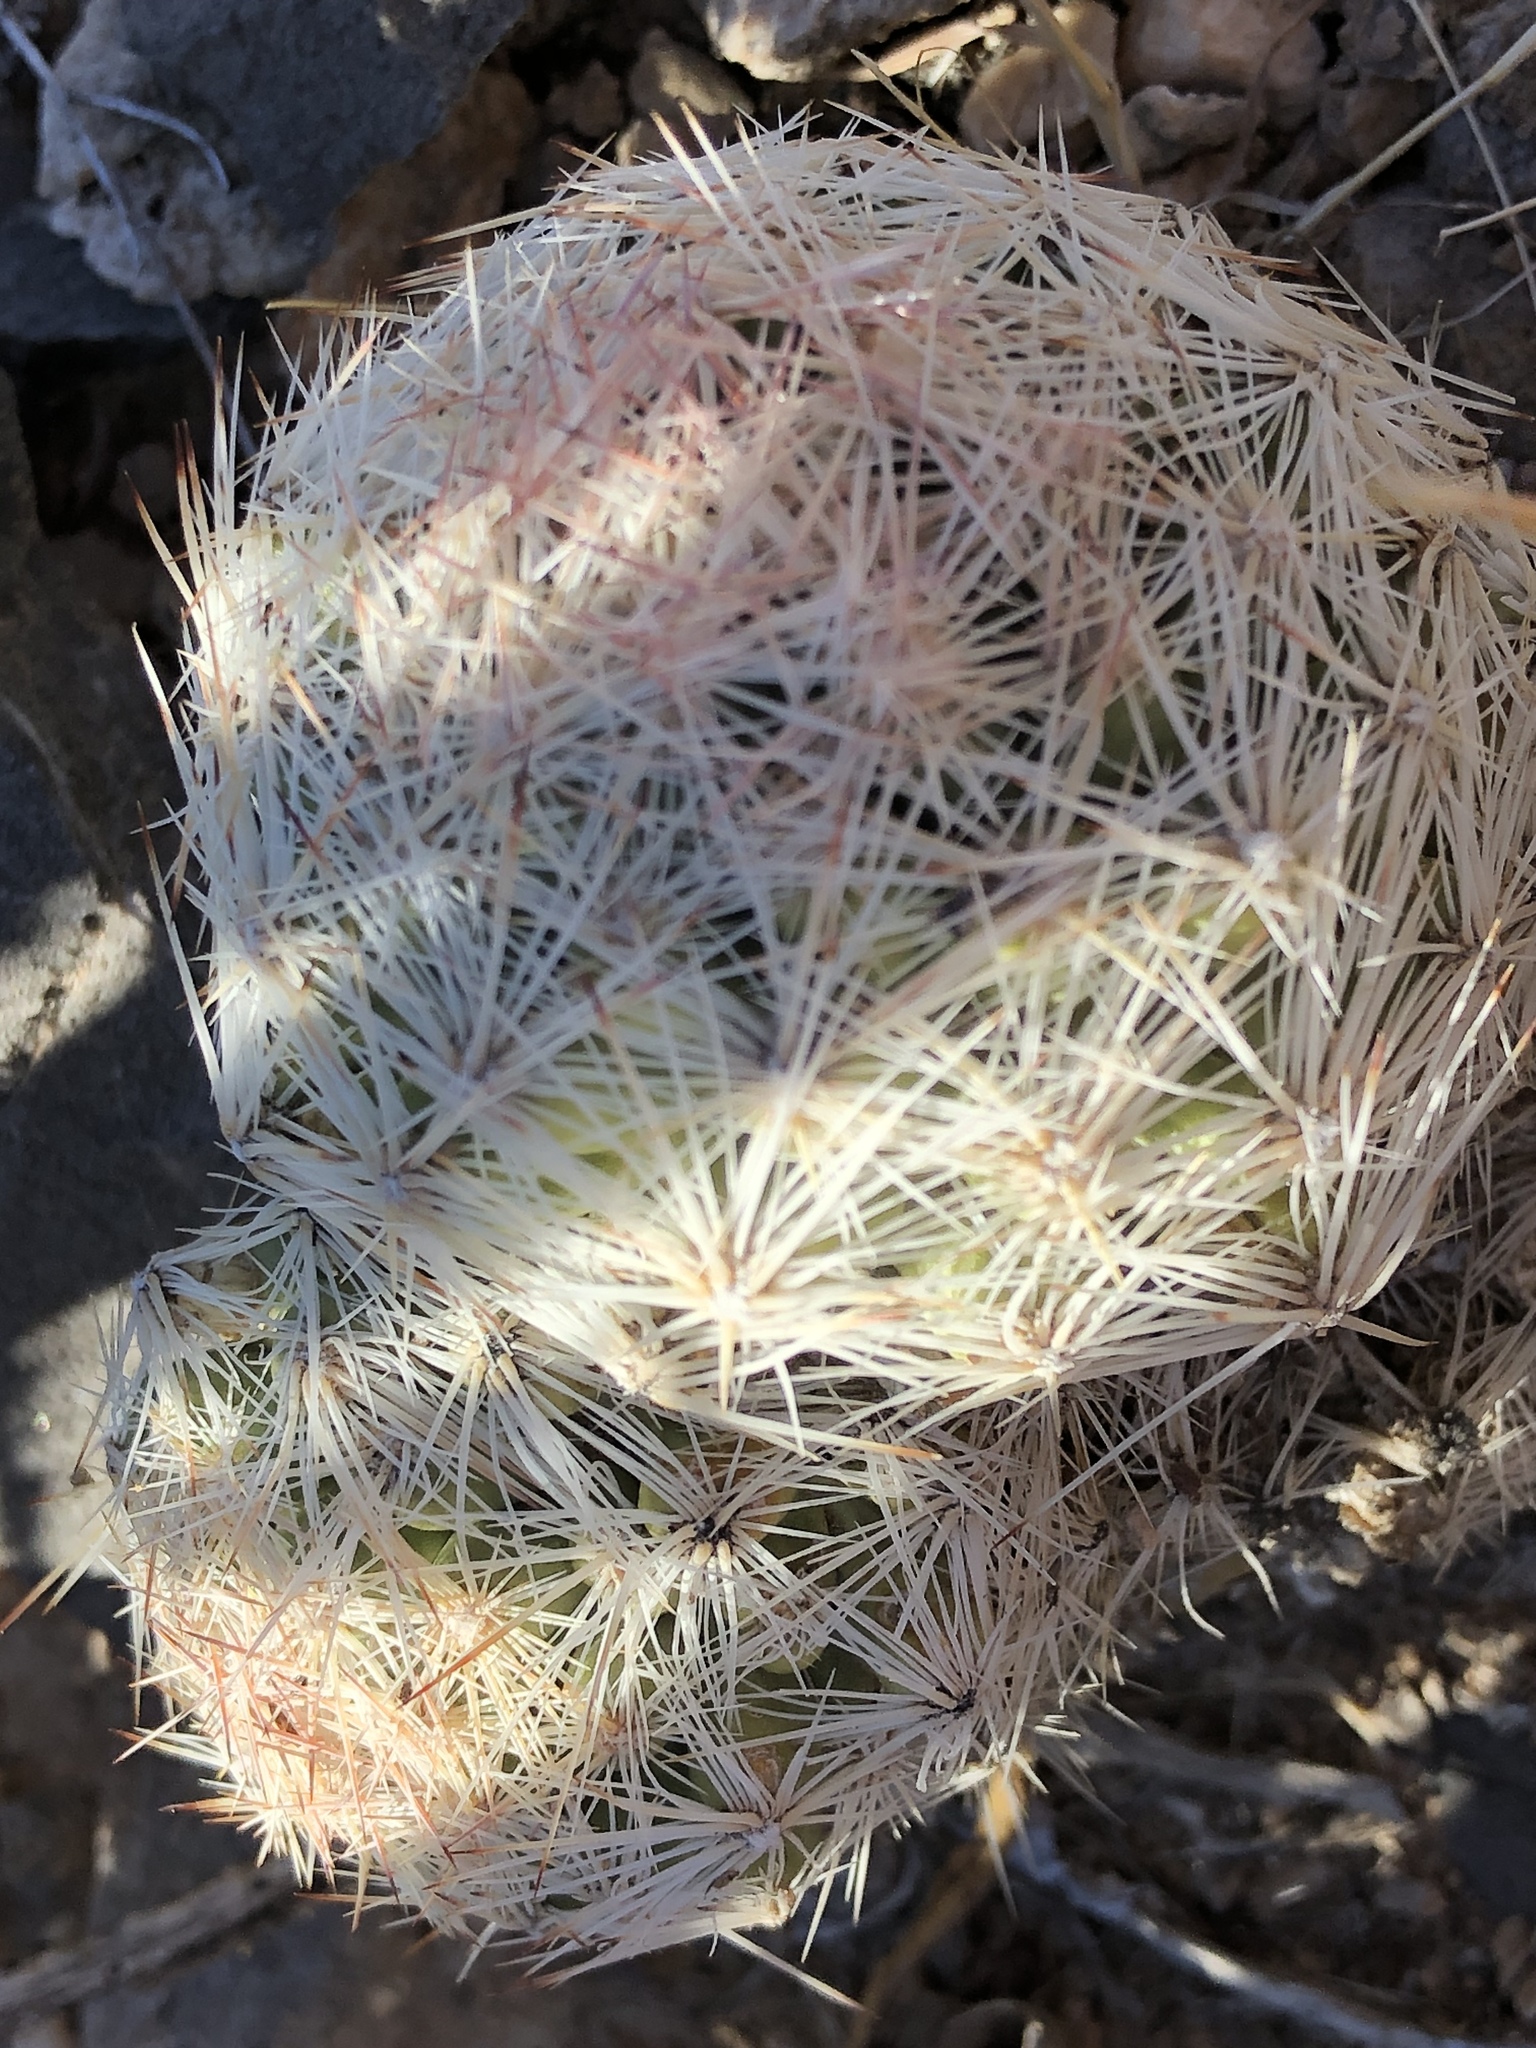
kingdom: Plantae
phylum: Tracheophyta
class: Magnoliopsida
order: Caryophyllales
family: Cactaceae
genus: Pelecyphora
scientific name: Pelecyphora dasyacantha
